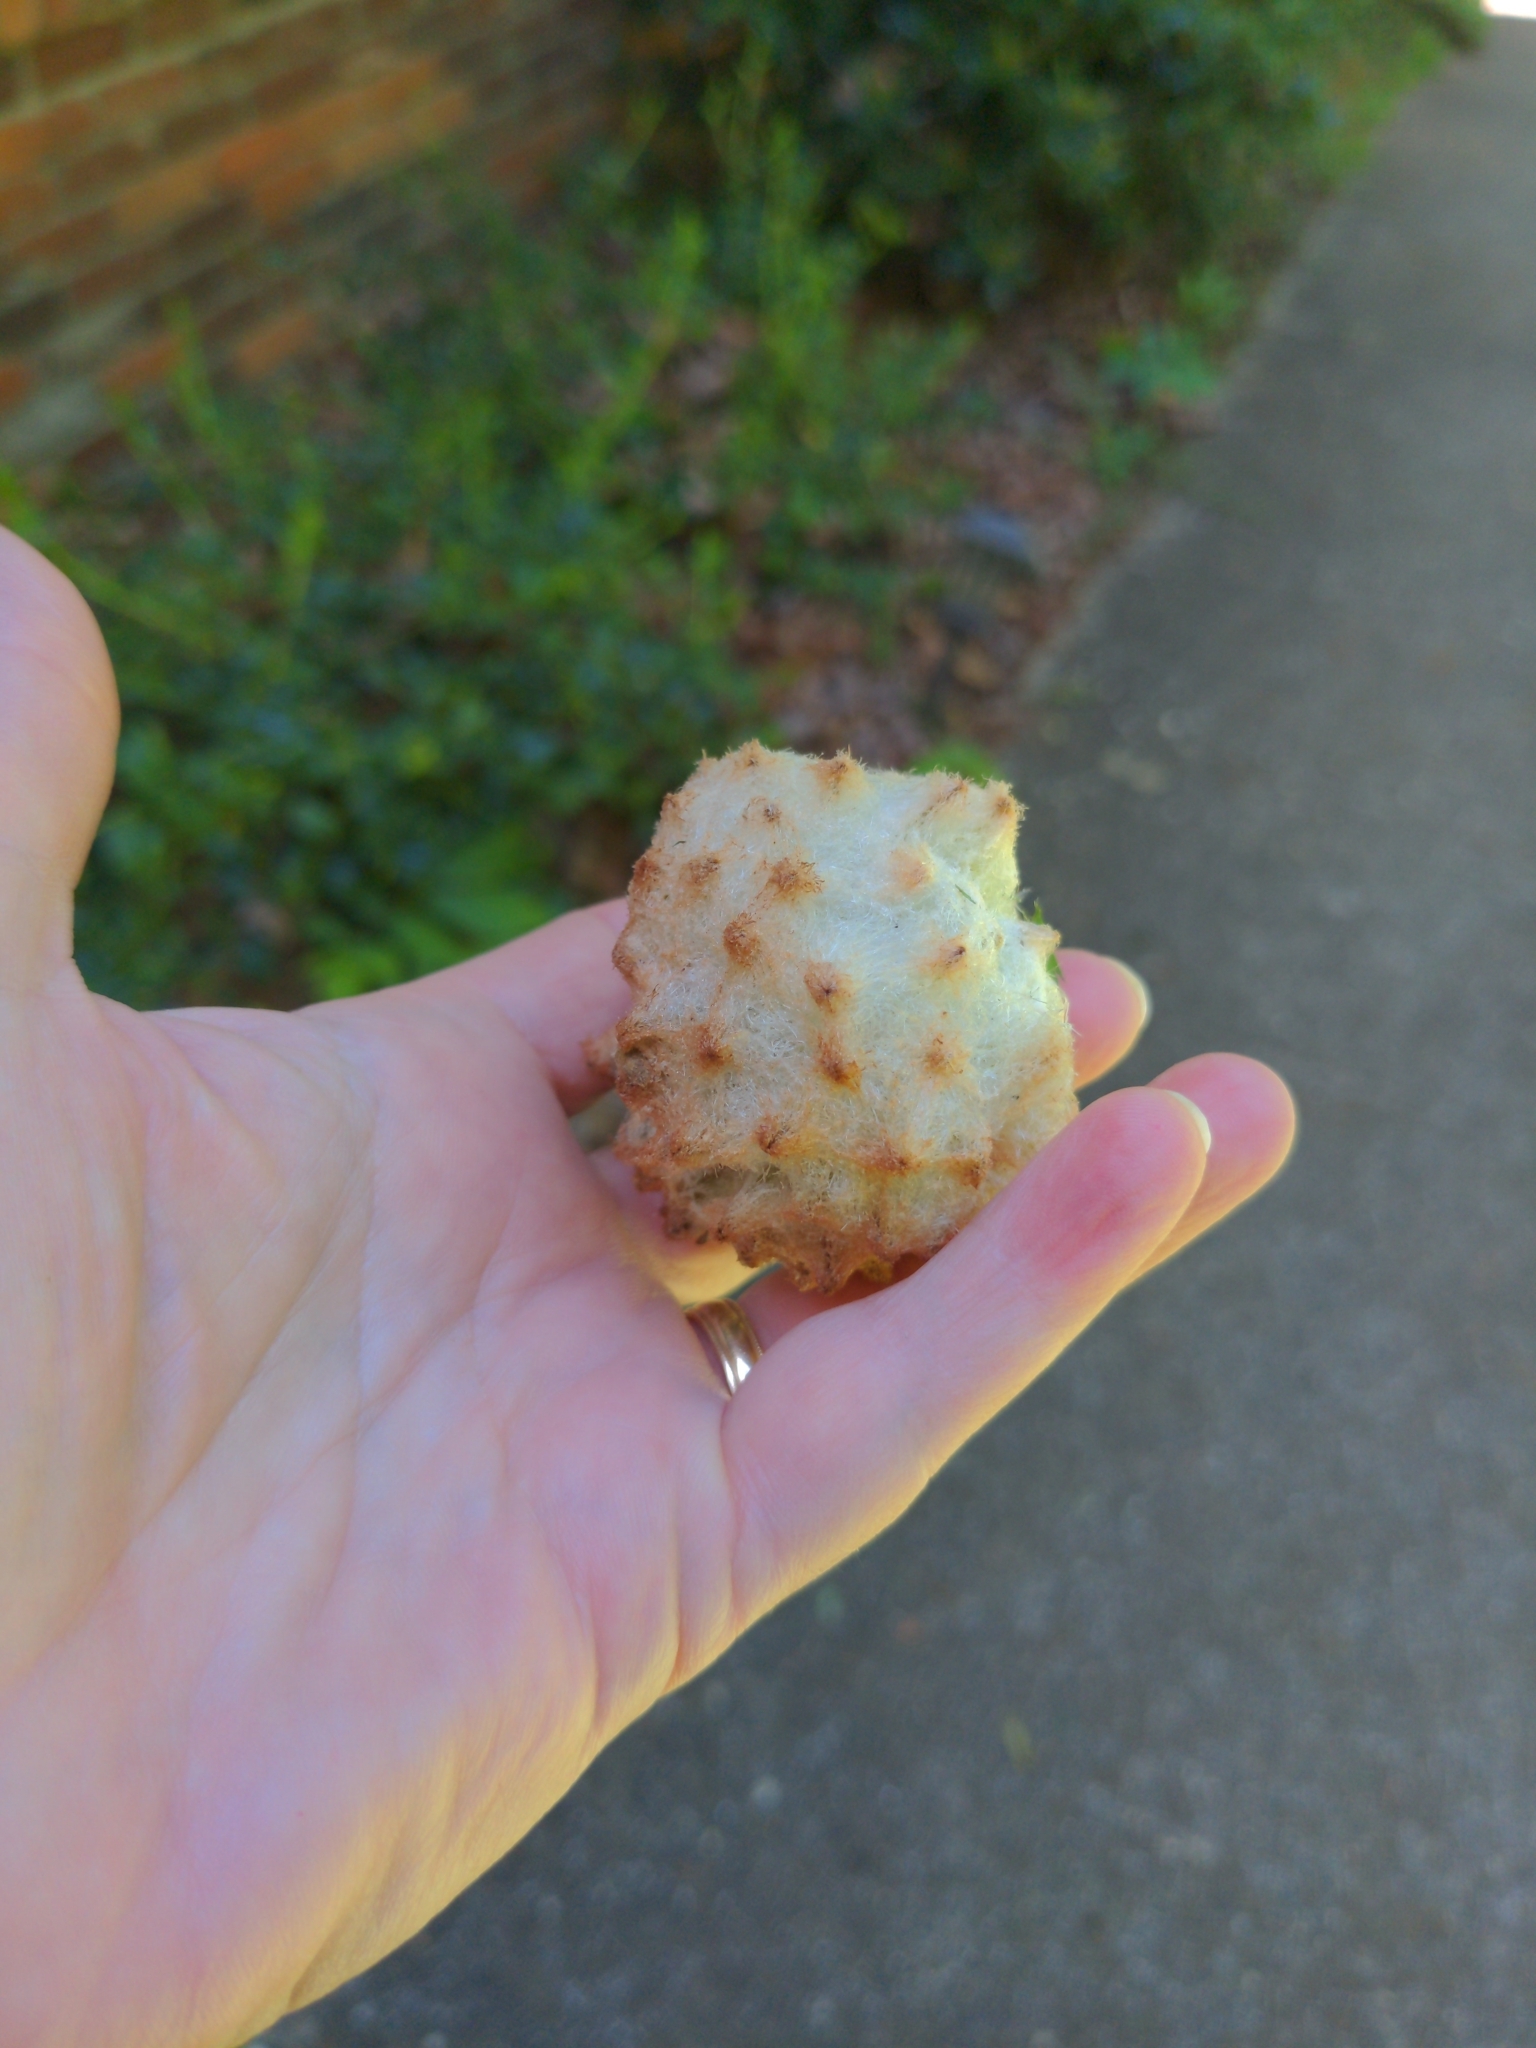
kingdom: Animalia
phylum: Arthropoda
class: Insecta
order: Hymenoptera
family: Cynipidae
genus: Callirhytis
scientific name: Callirhytis
